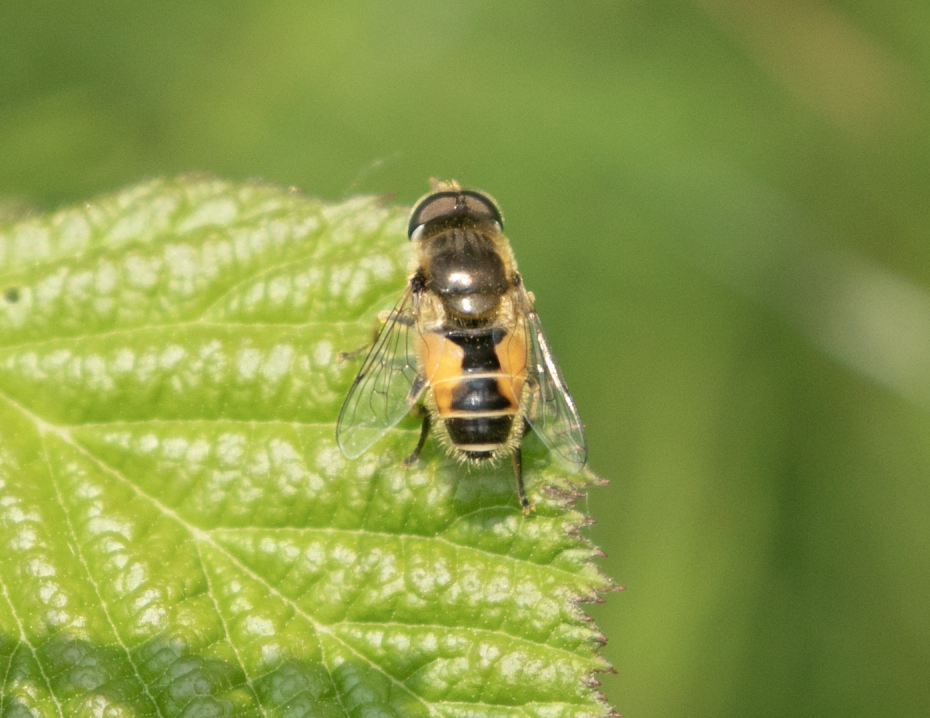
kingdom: Animalia
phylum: Arthropoda
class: Insecta
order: Diptera
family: Syrphidae
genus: Eristalis
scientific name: Eristalis arbustorum
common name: Hover fly
